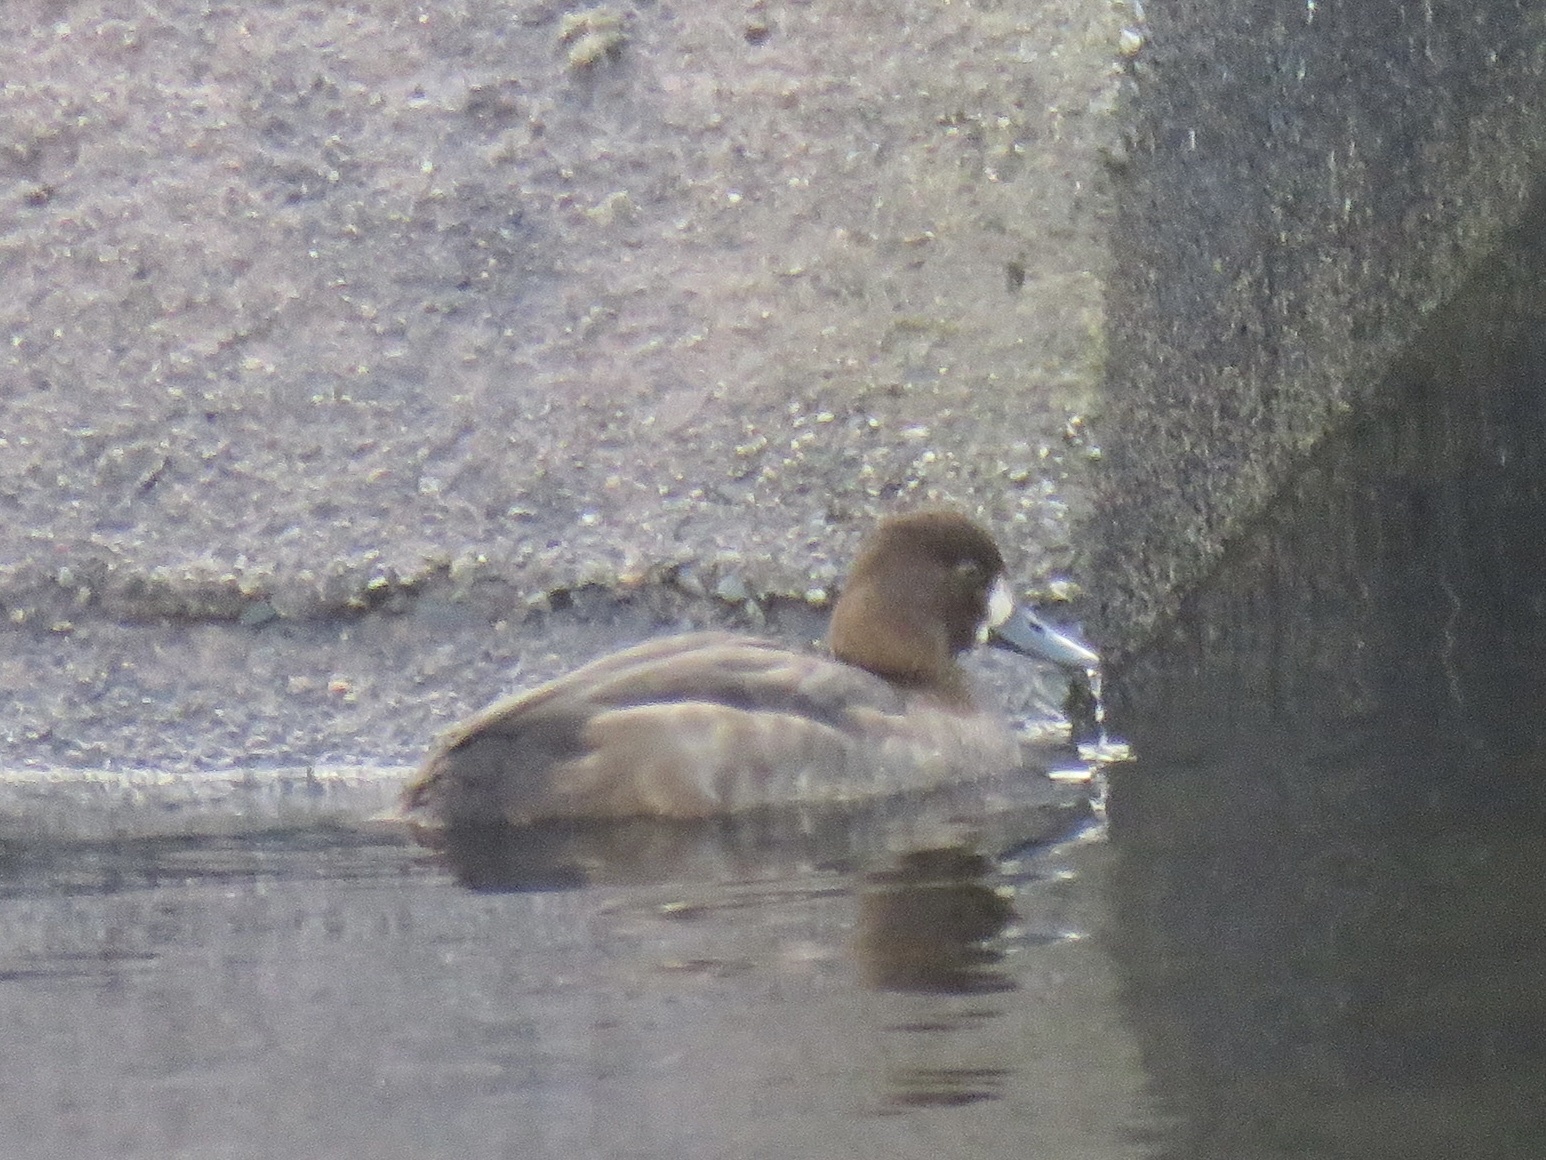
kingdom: Animalia
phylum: Chordata
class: Aves
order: Anseriformes
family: Anatidae
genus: Aythya
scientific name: Aythya affinis
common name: Lesser scaup
